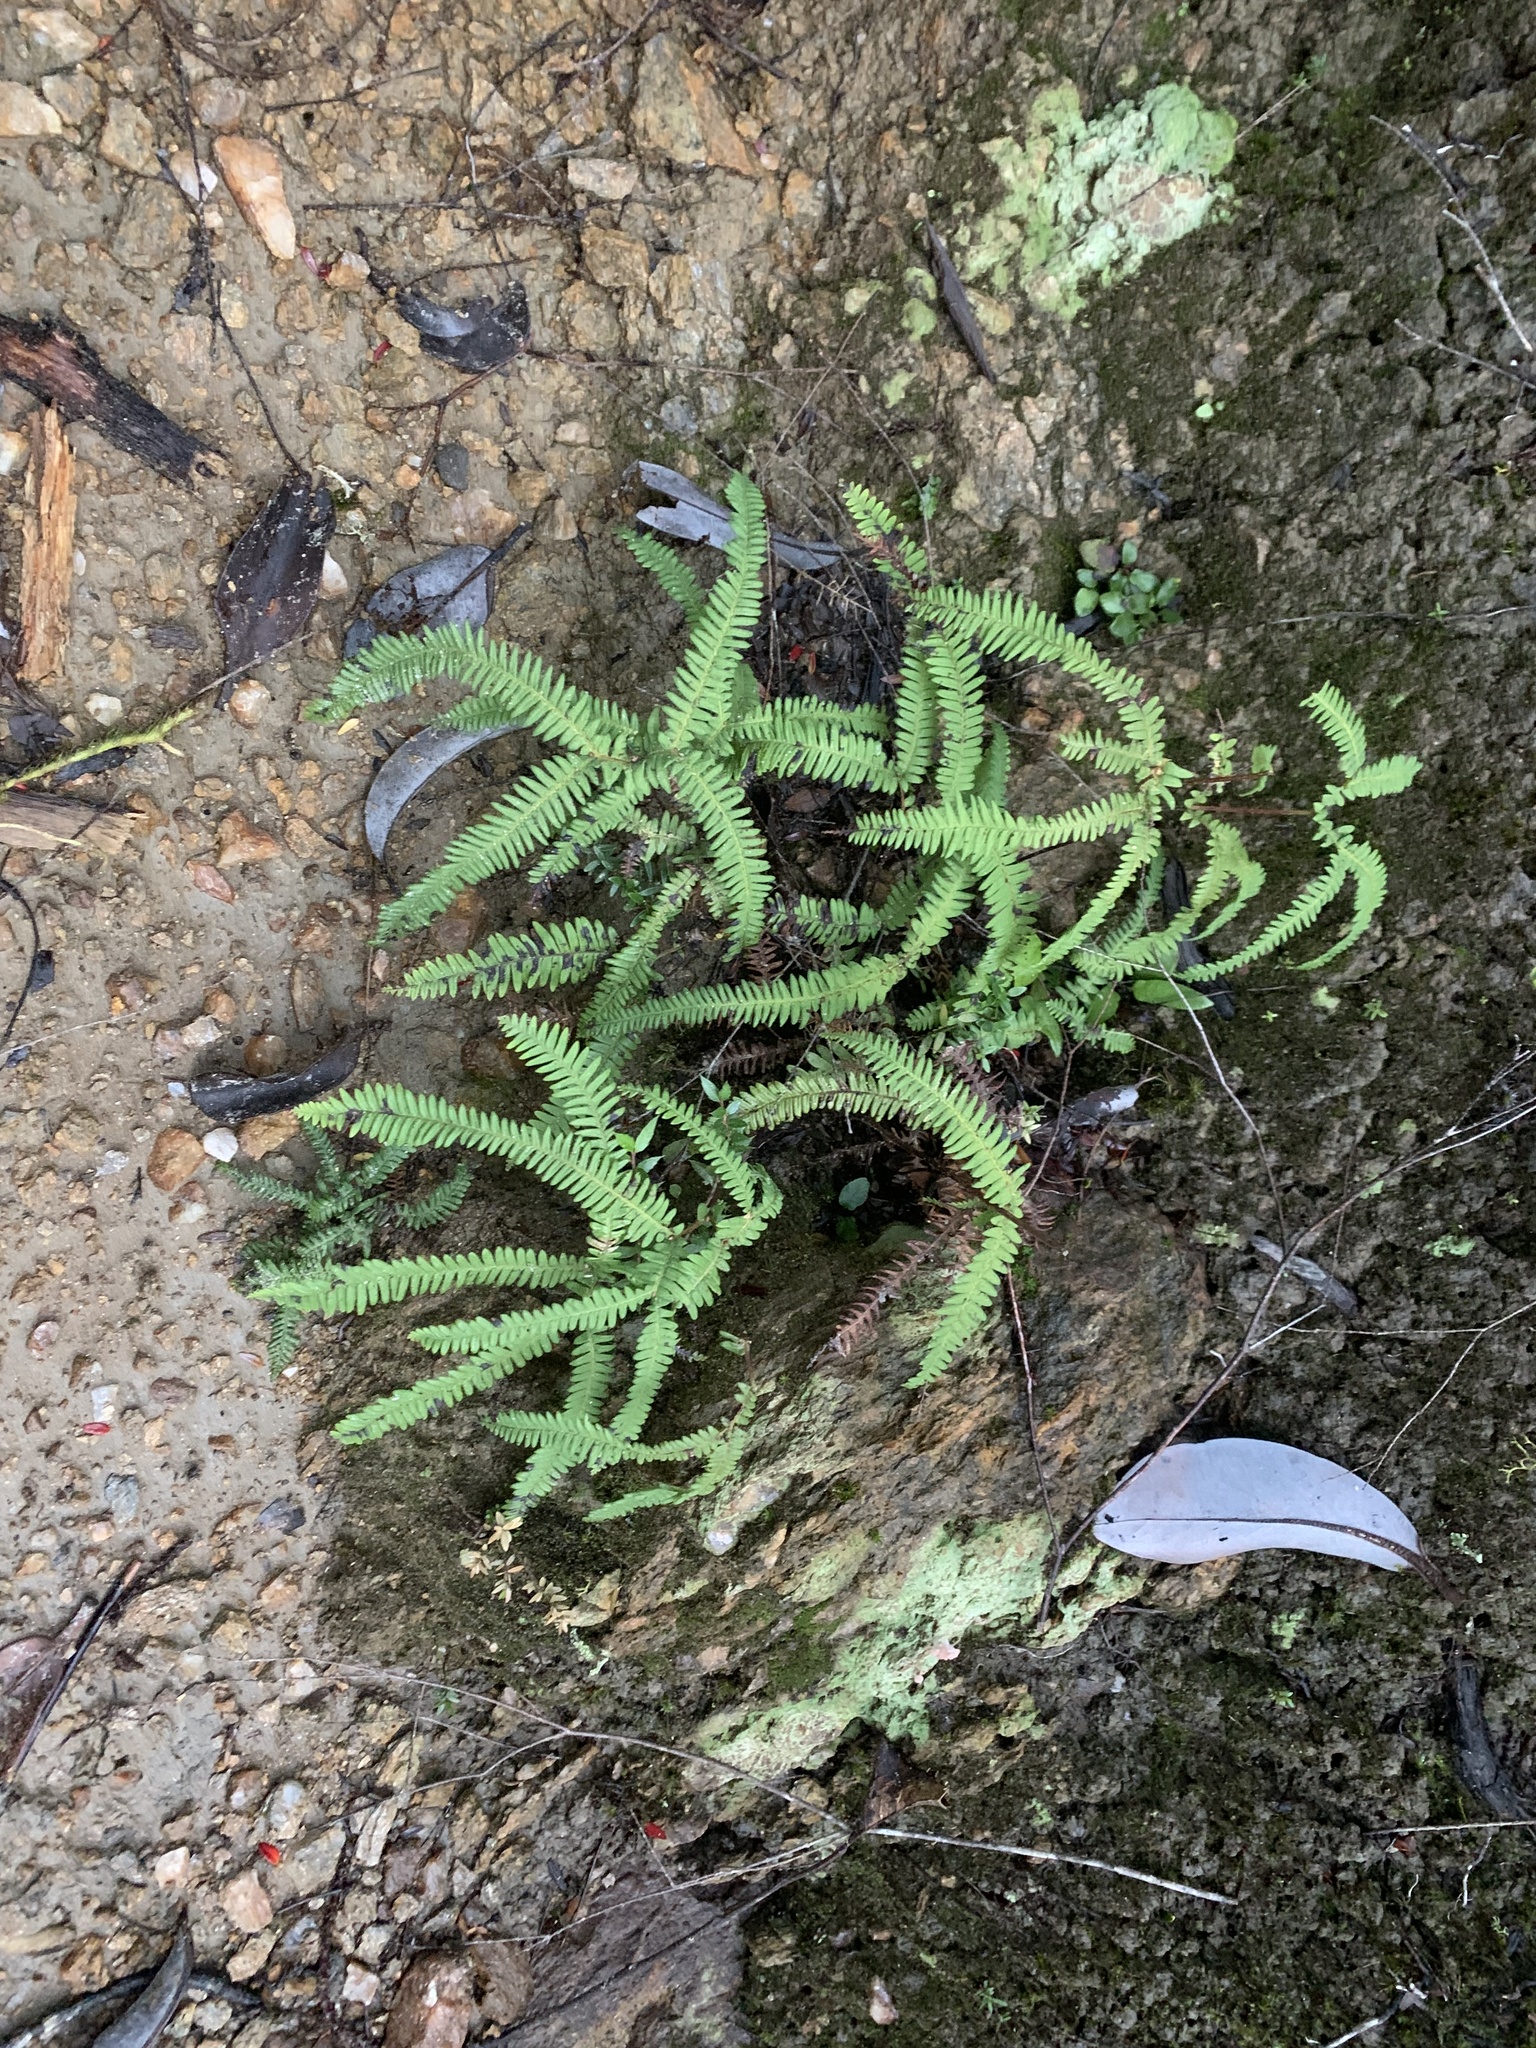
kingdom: Plantae
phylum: Tracheophyta
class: Polypodiopsida
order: Gleicheniales
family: Gleicheniaceae
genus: Sticherus
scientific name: Sticherus squamulosus
